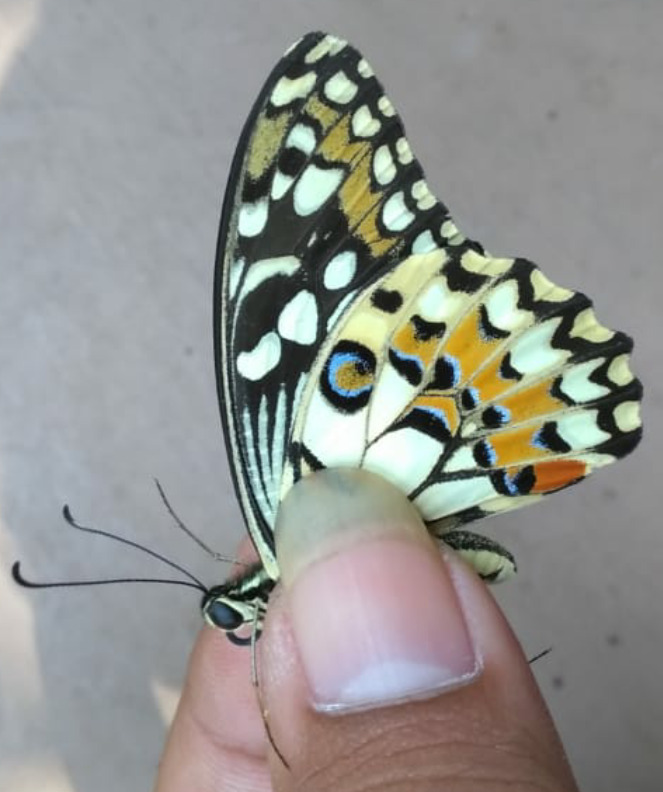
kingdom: Animalia
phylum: Arthropoda
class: Insecta
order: Lepidoptera
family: Papilionidae
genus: Papilio
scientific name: Papilio demoleus
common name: Lime butterfly
